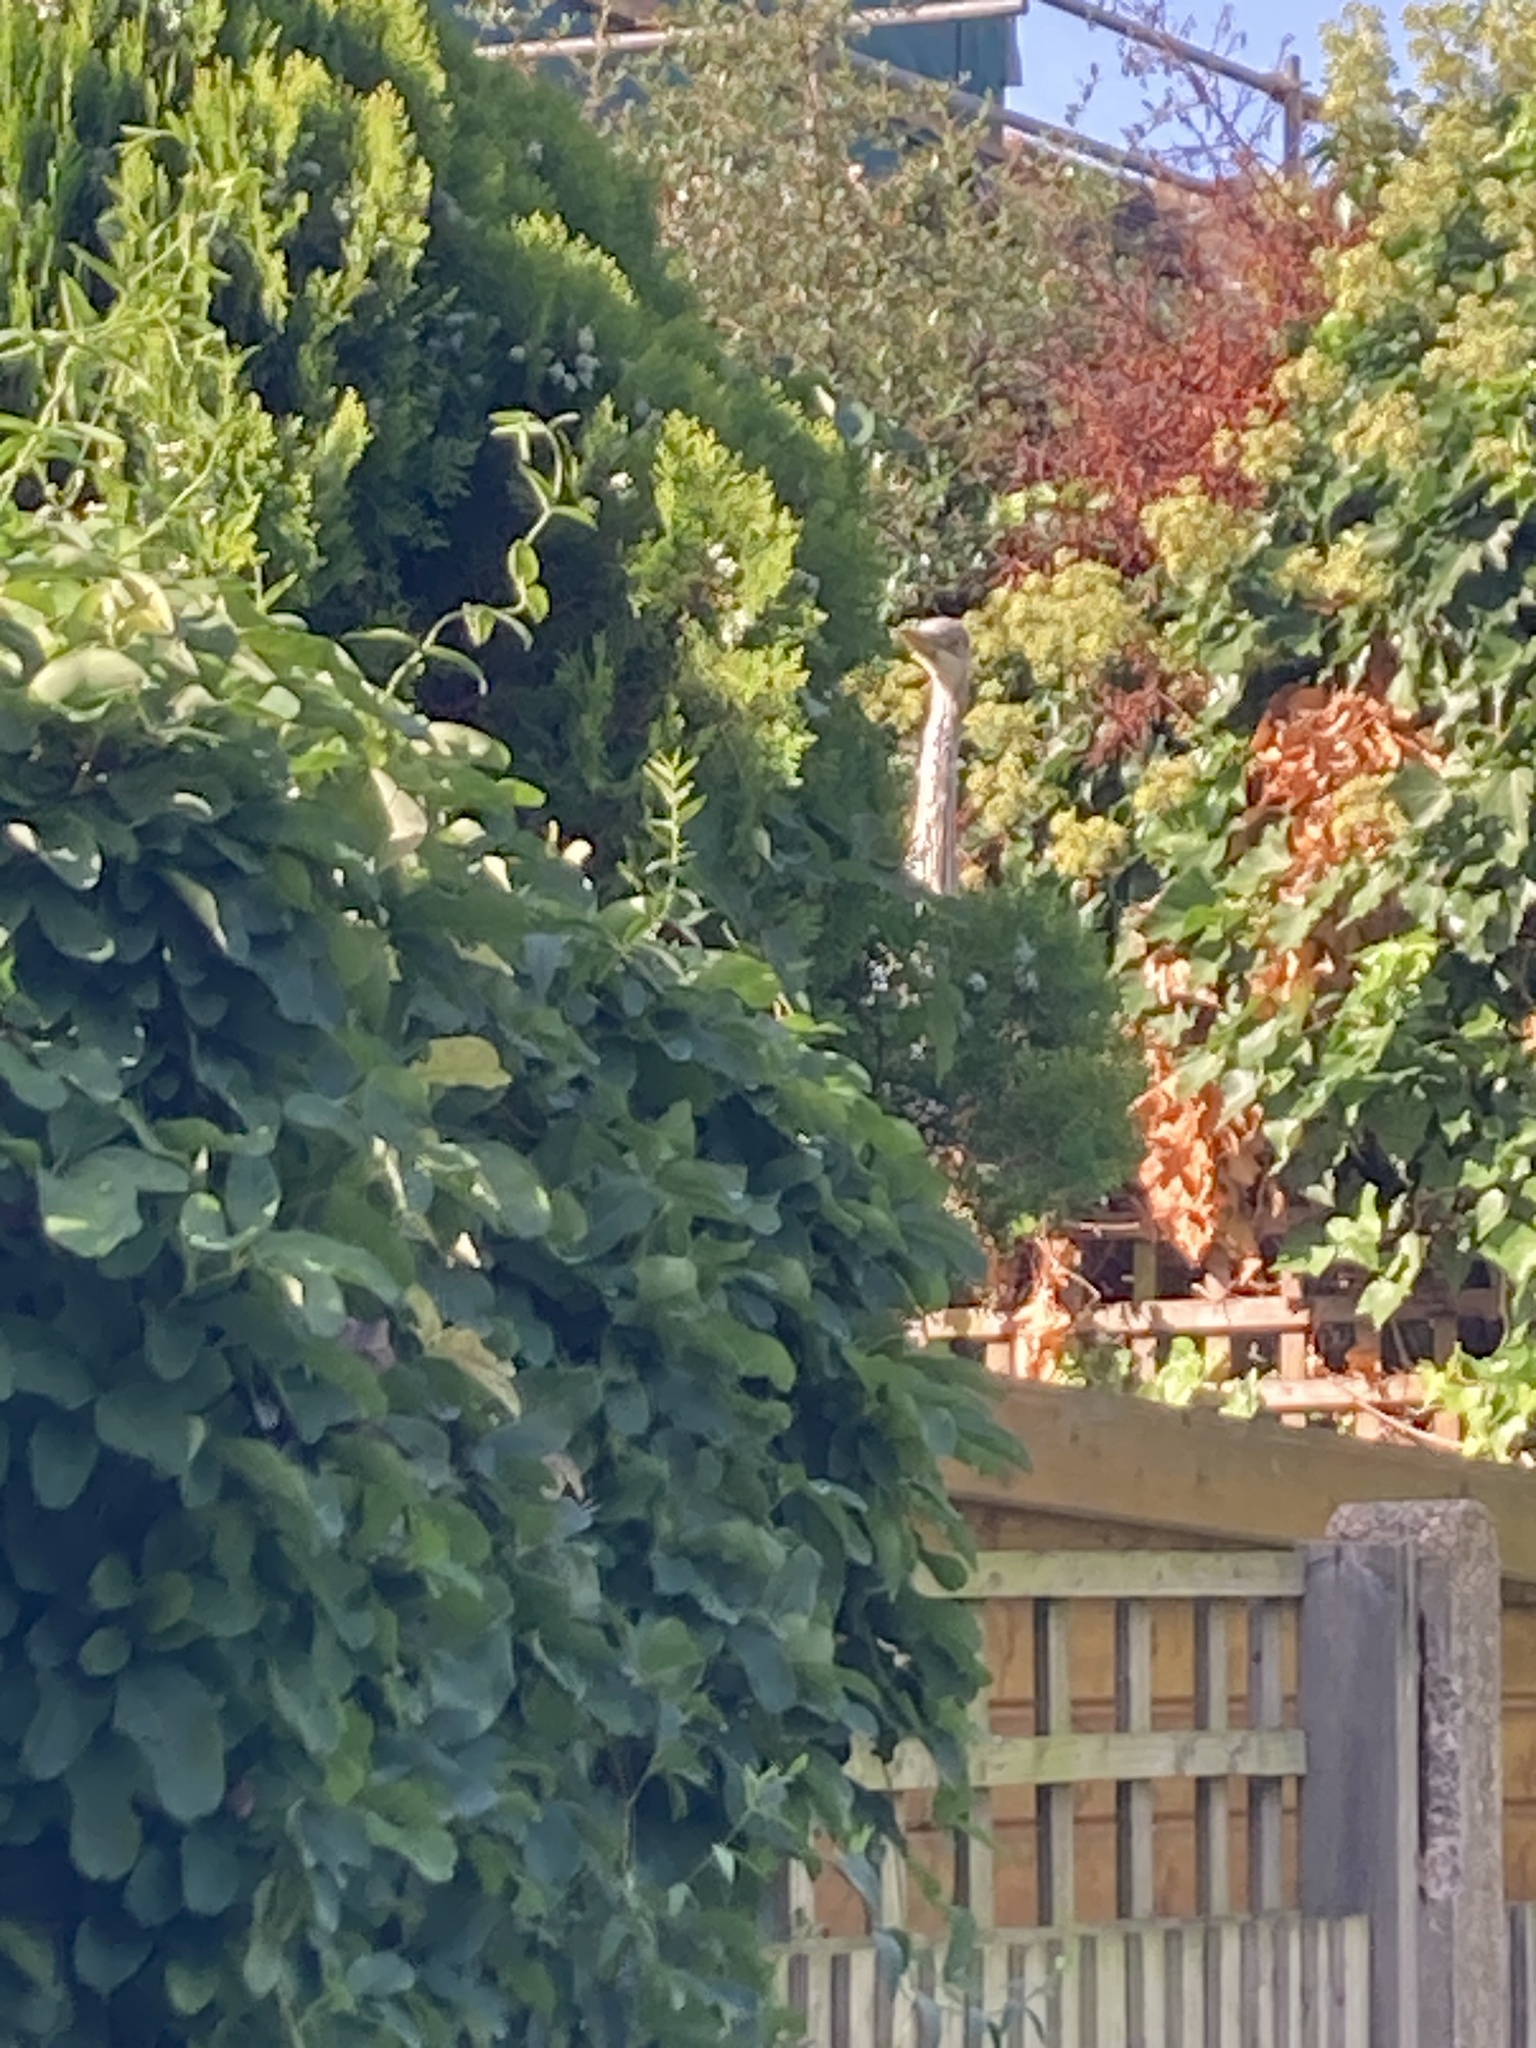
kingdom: Animalia
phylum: Chordata
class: Aves
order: Pelecaniformes
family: Ardeidae
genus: Ardea
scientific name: Ardea cinerea
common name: Grey heron
